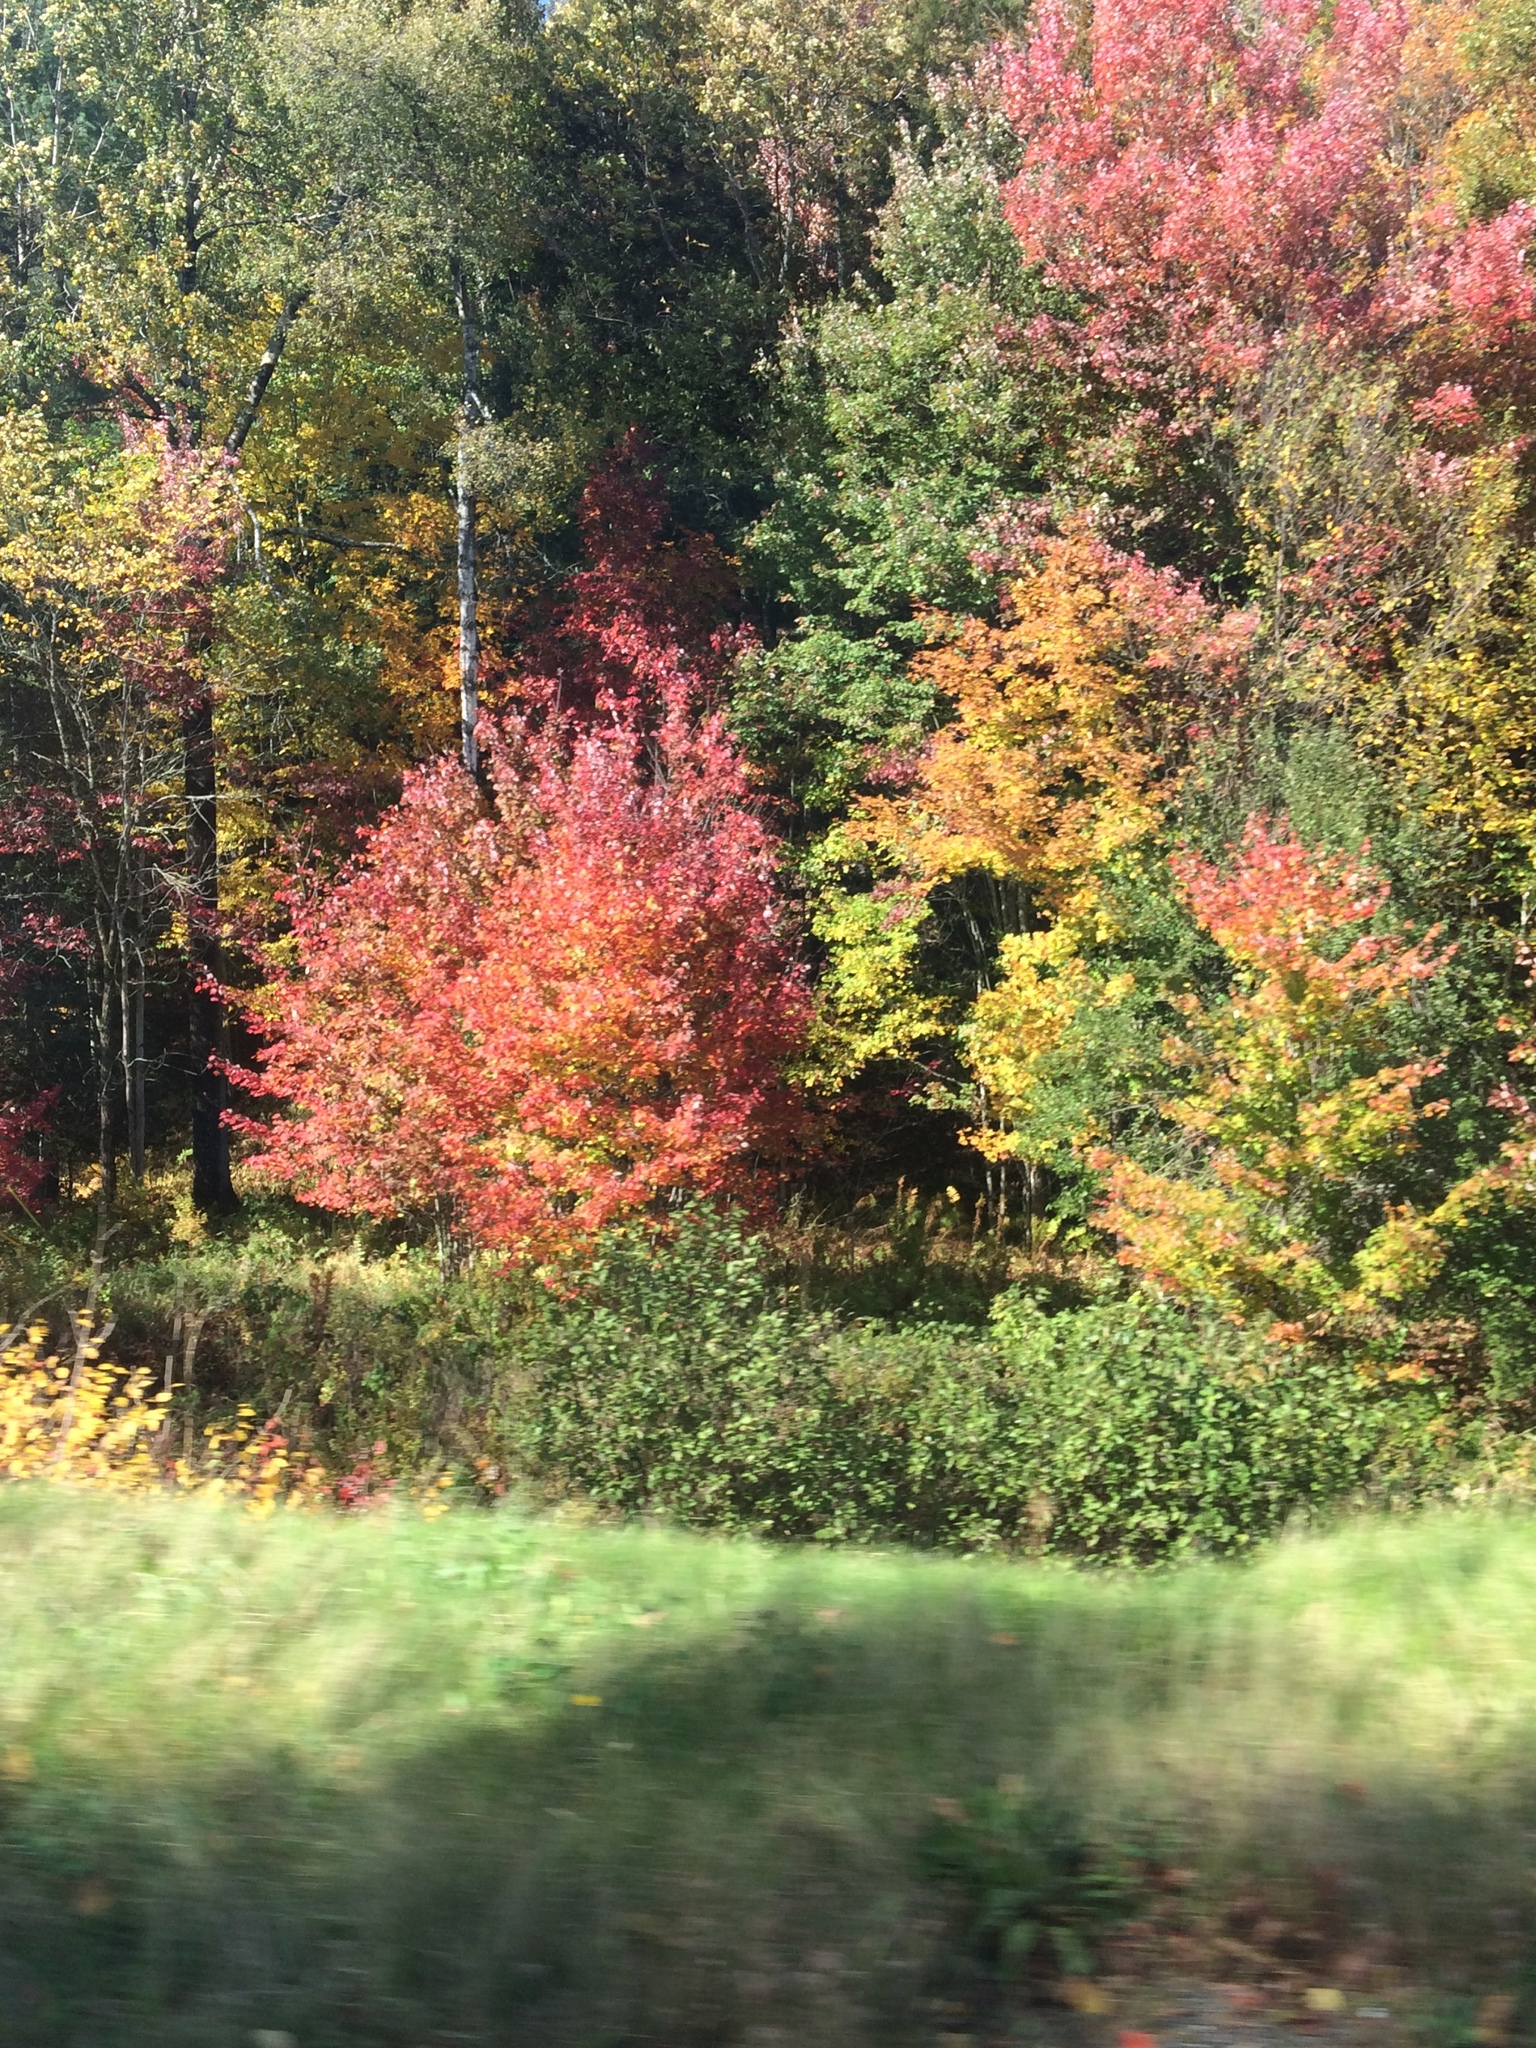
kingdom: Plantae
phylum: Tracheophyta
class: Magnoliopsida
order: Sapindales
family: Sapindaceae
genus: Acer
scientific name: Acer rubrum
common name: Red maple
